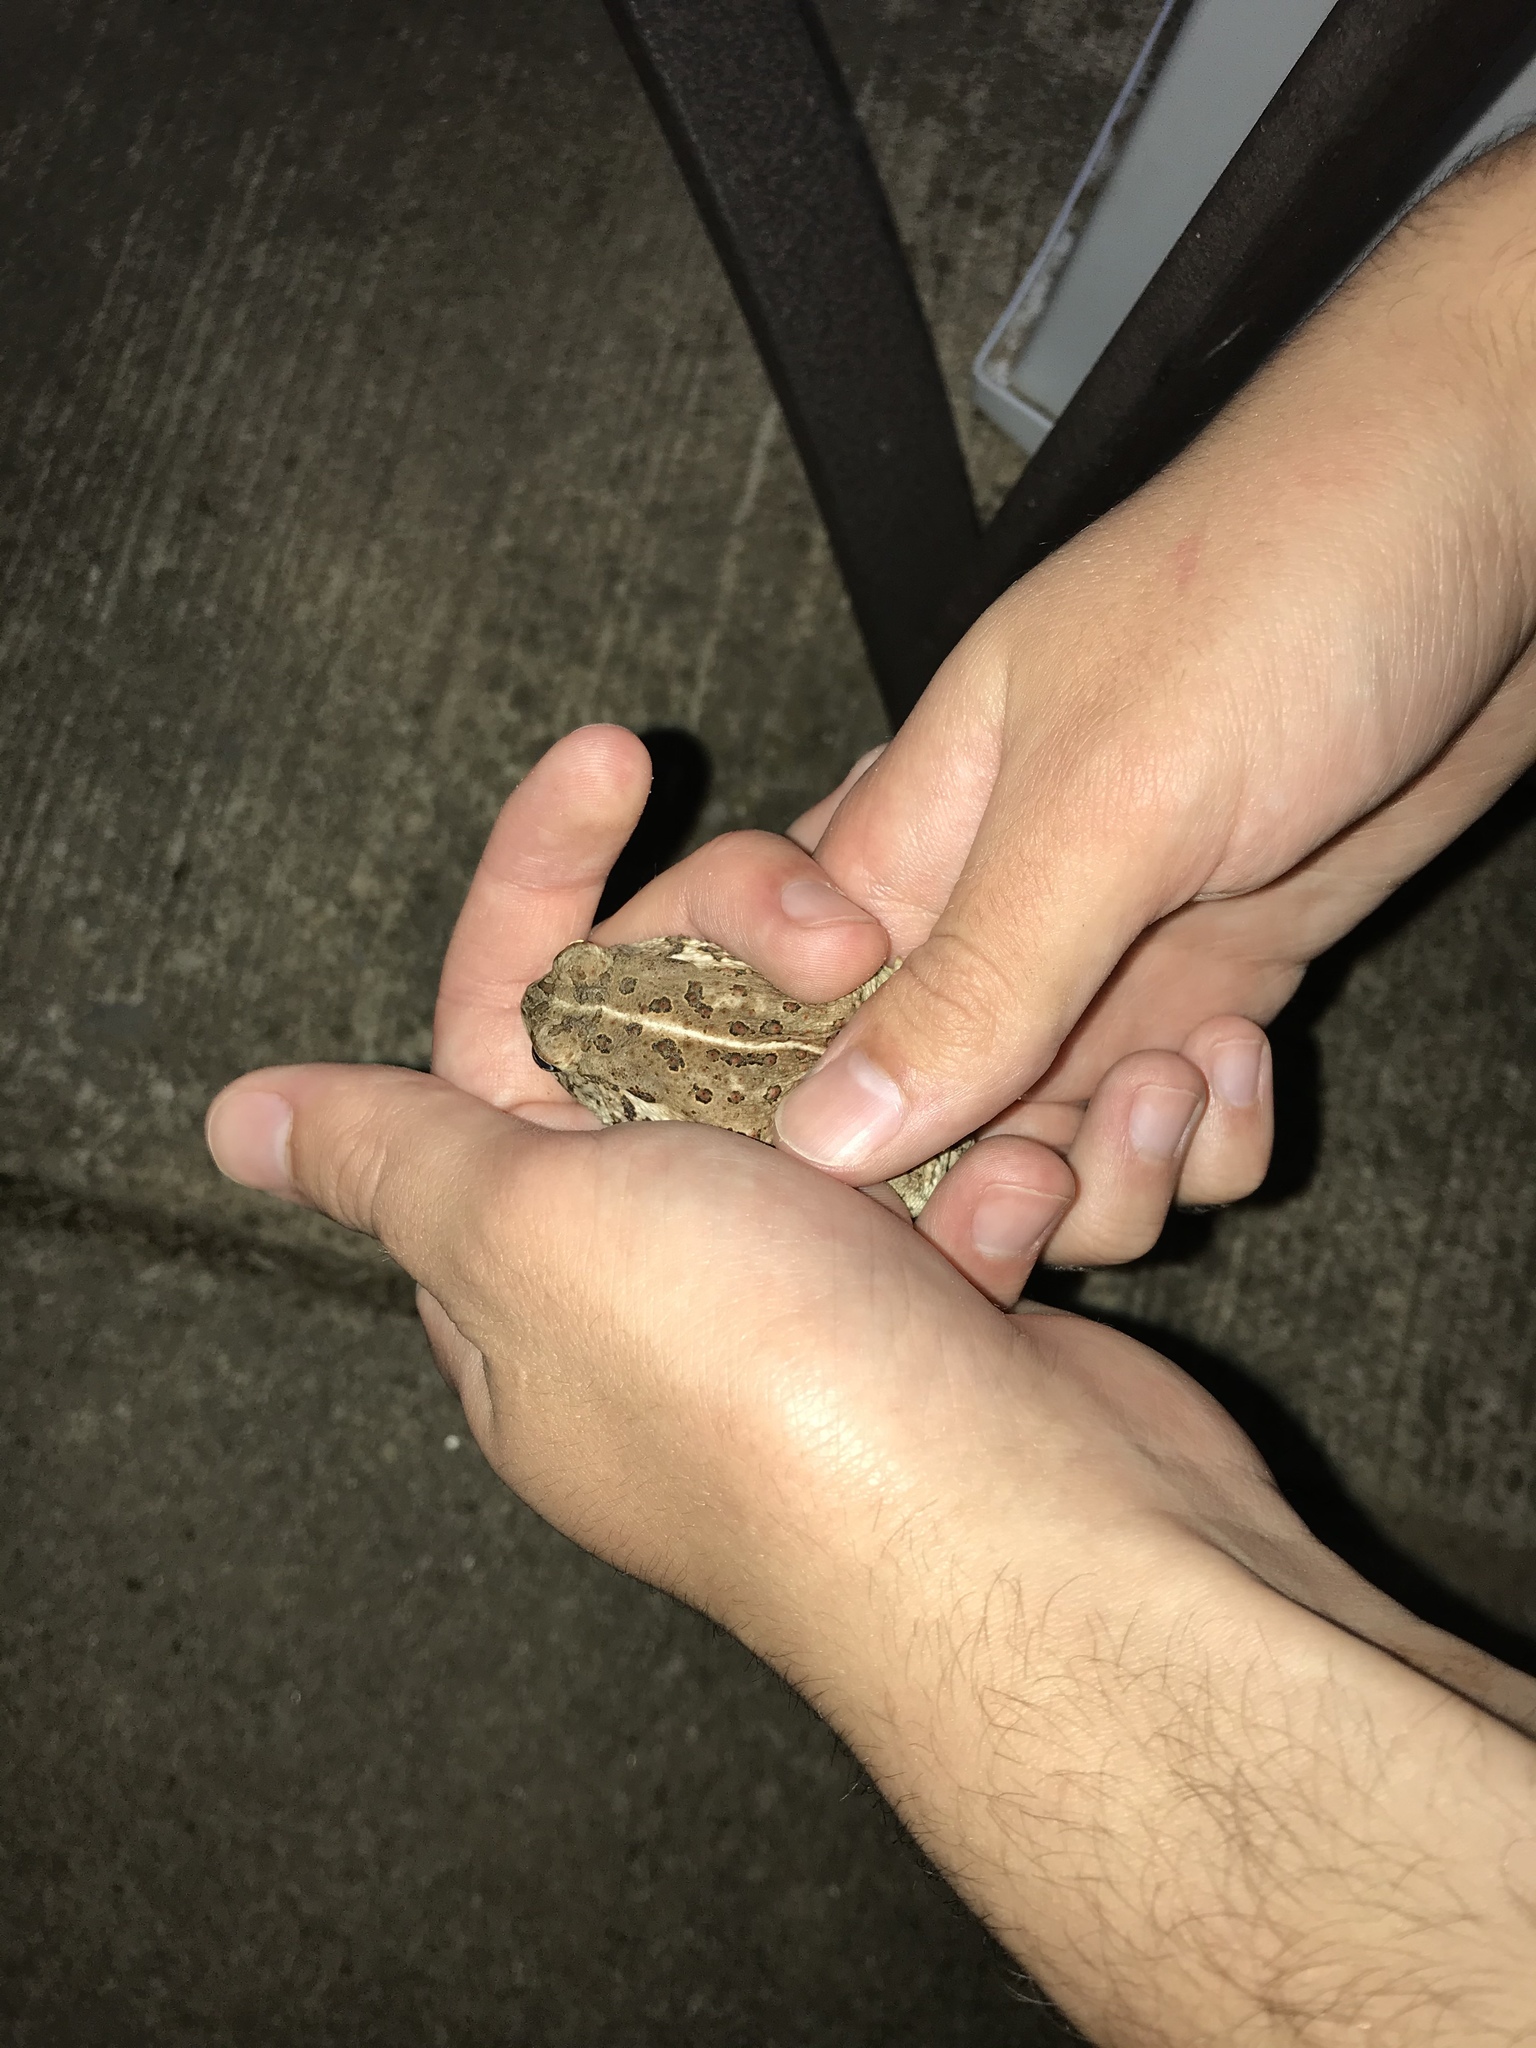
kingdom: Animalia
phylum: Chordata
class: Amphibia
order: Anura
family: Bufonidae
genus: Anaxyrus
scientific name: Anaxyrus
